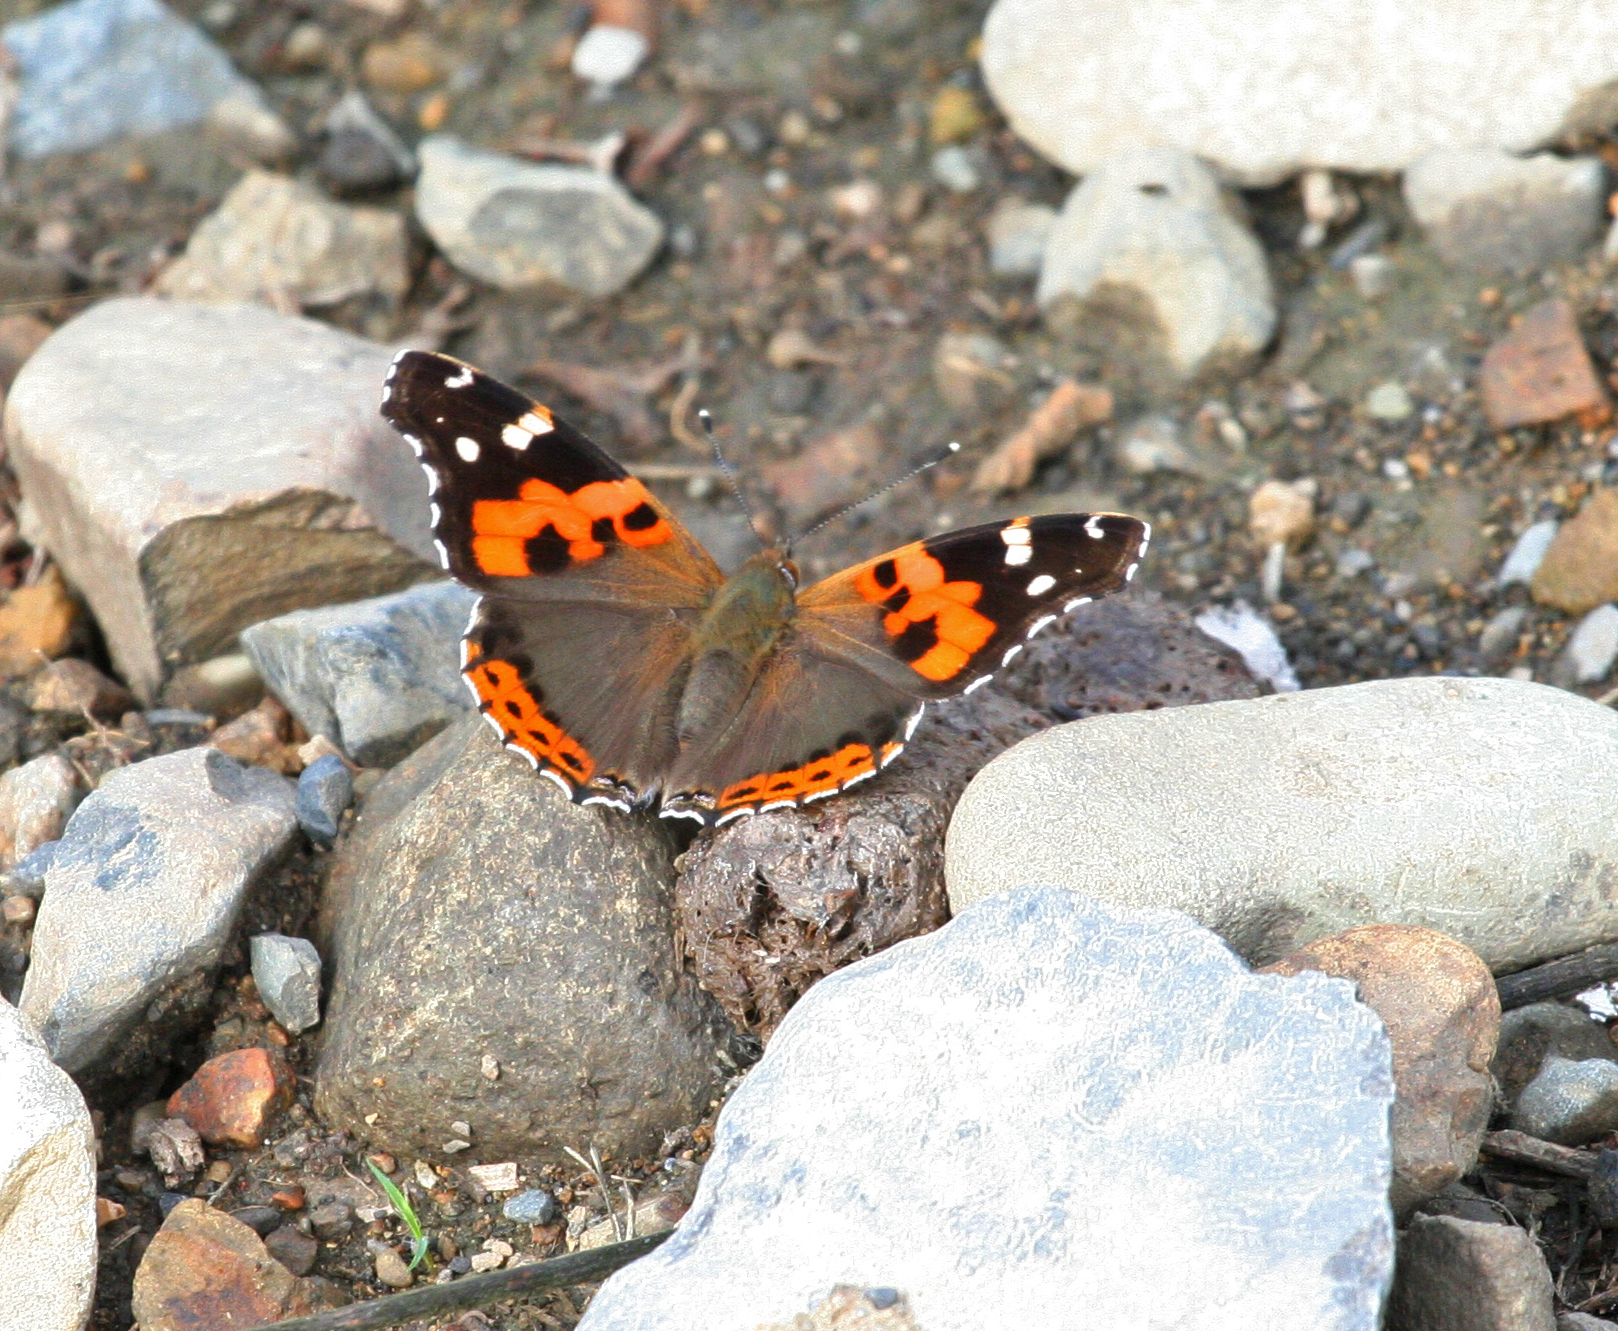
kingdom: Animalia
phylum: Arthropoda
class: Insecta
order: Lepidoptera
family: Nymphalidae
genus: Vanessa
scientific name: Vanessa indica
